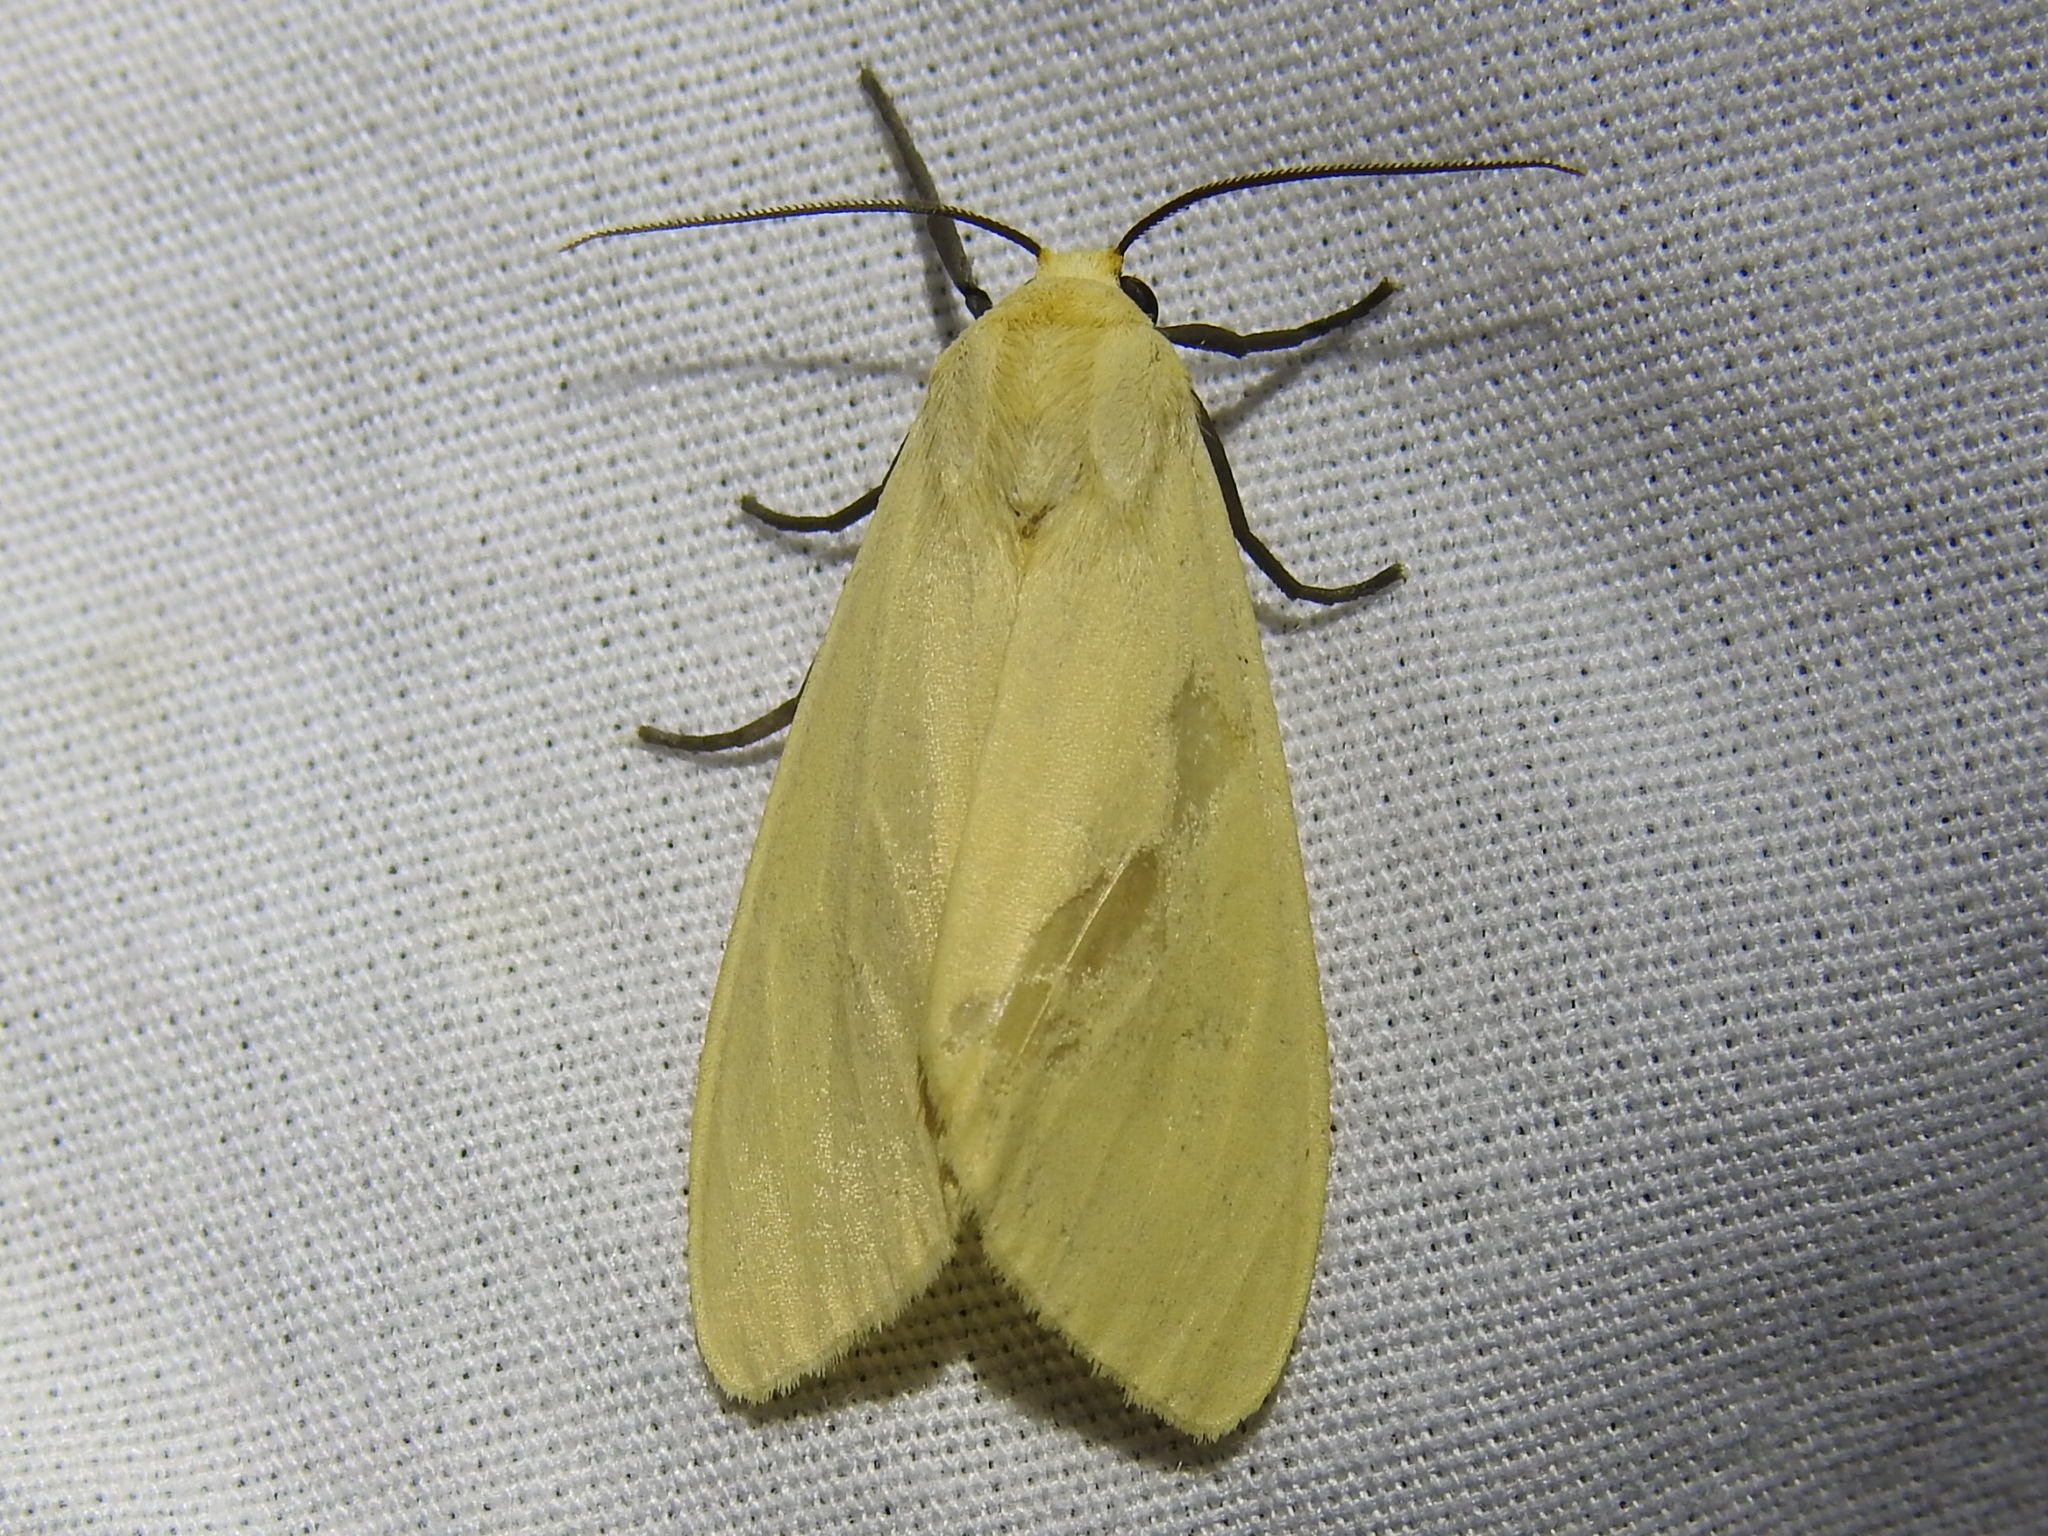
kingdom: Animalia
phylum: Arthropoda
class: Insecta
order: Lepidoptera
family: Erebidae
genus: Pareuchaetes
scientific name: Pareuchaetes insulata
